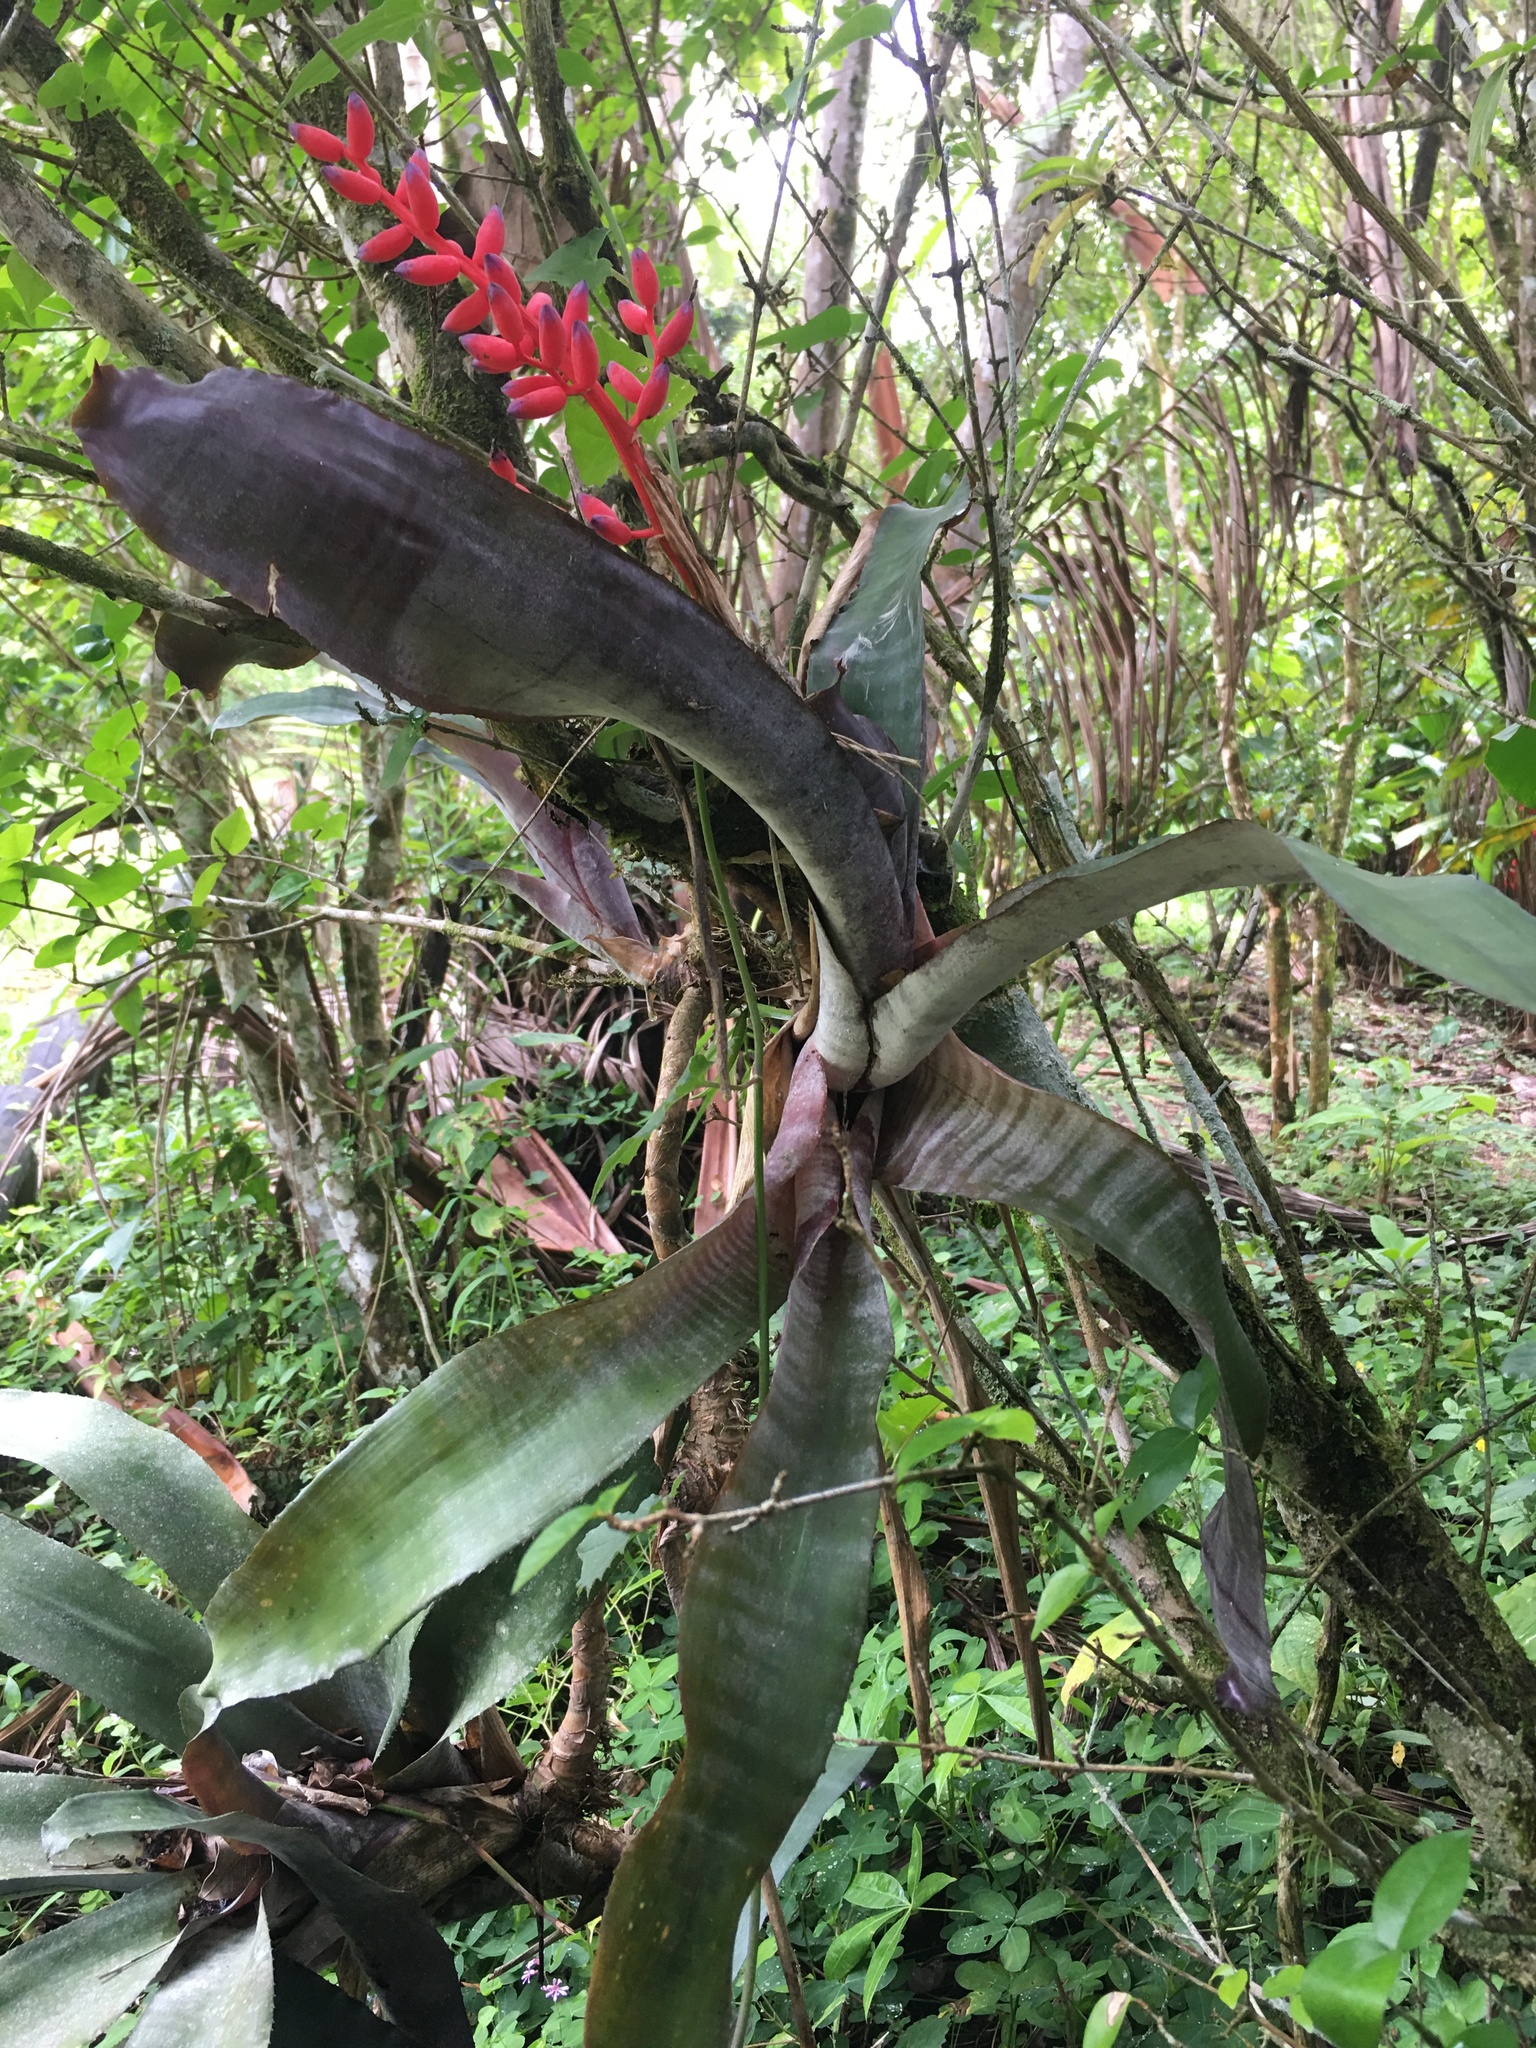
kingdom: Plantae
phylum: Tracheophyta
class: Liliopsida
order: Poales
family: Bromeliaceae
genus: Aechmea
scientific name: Aechmea fulgens
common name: Coralberry
